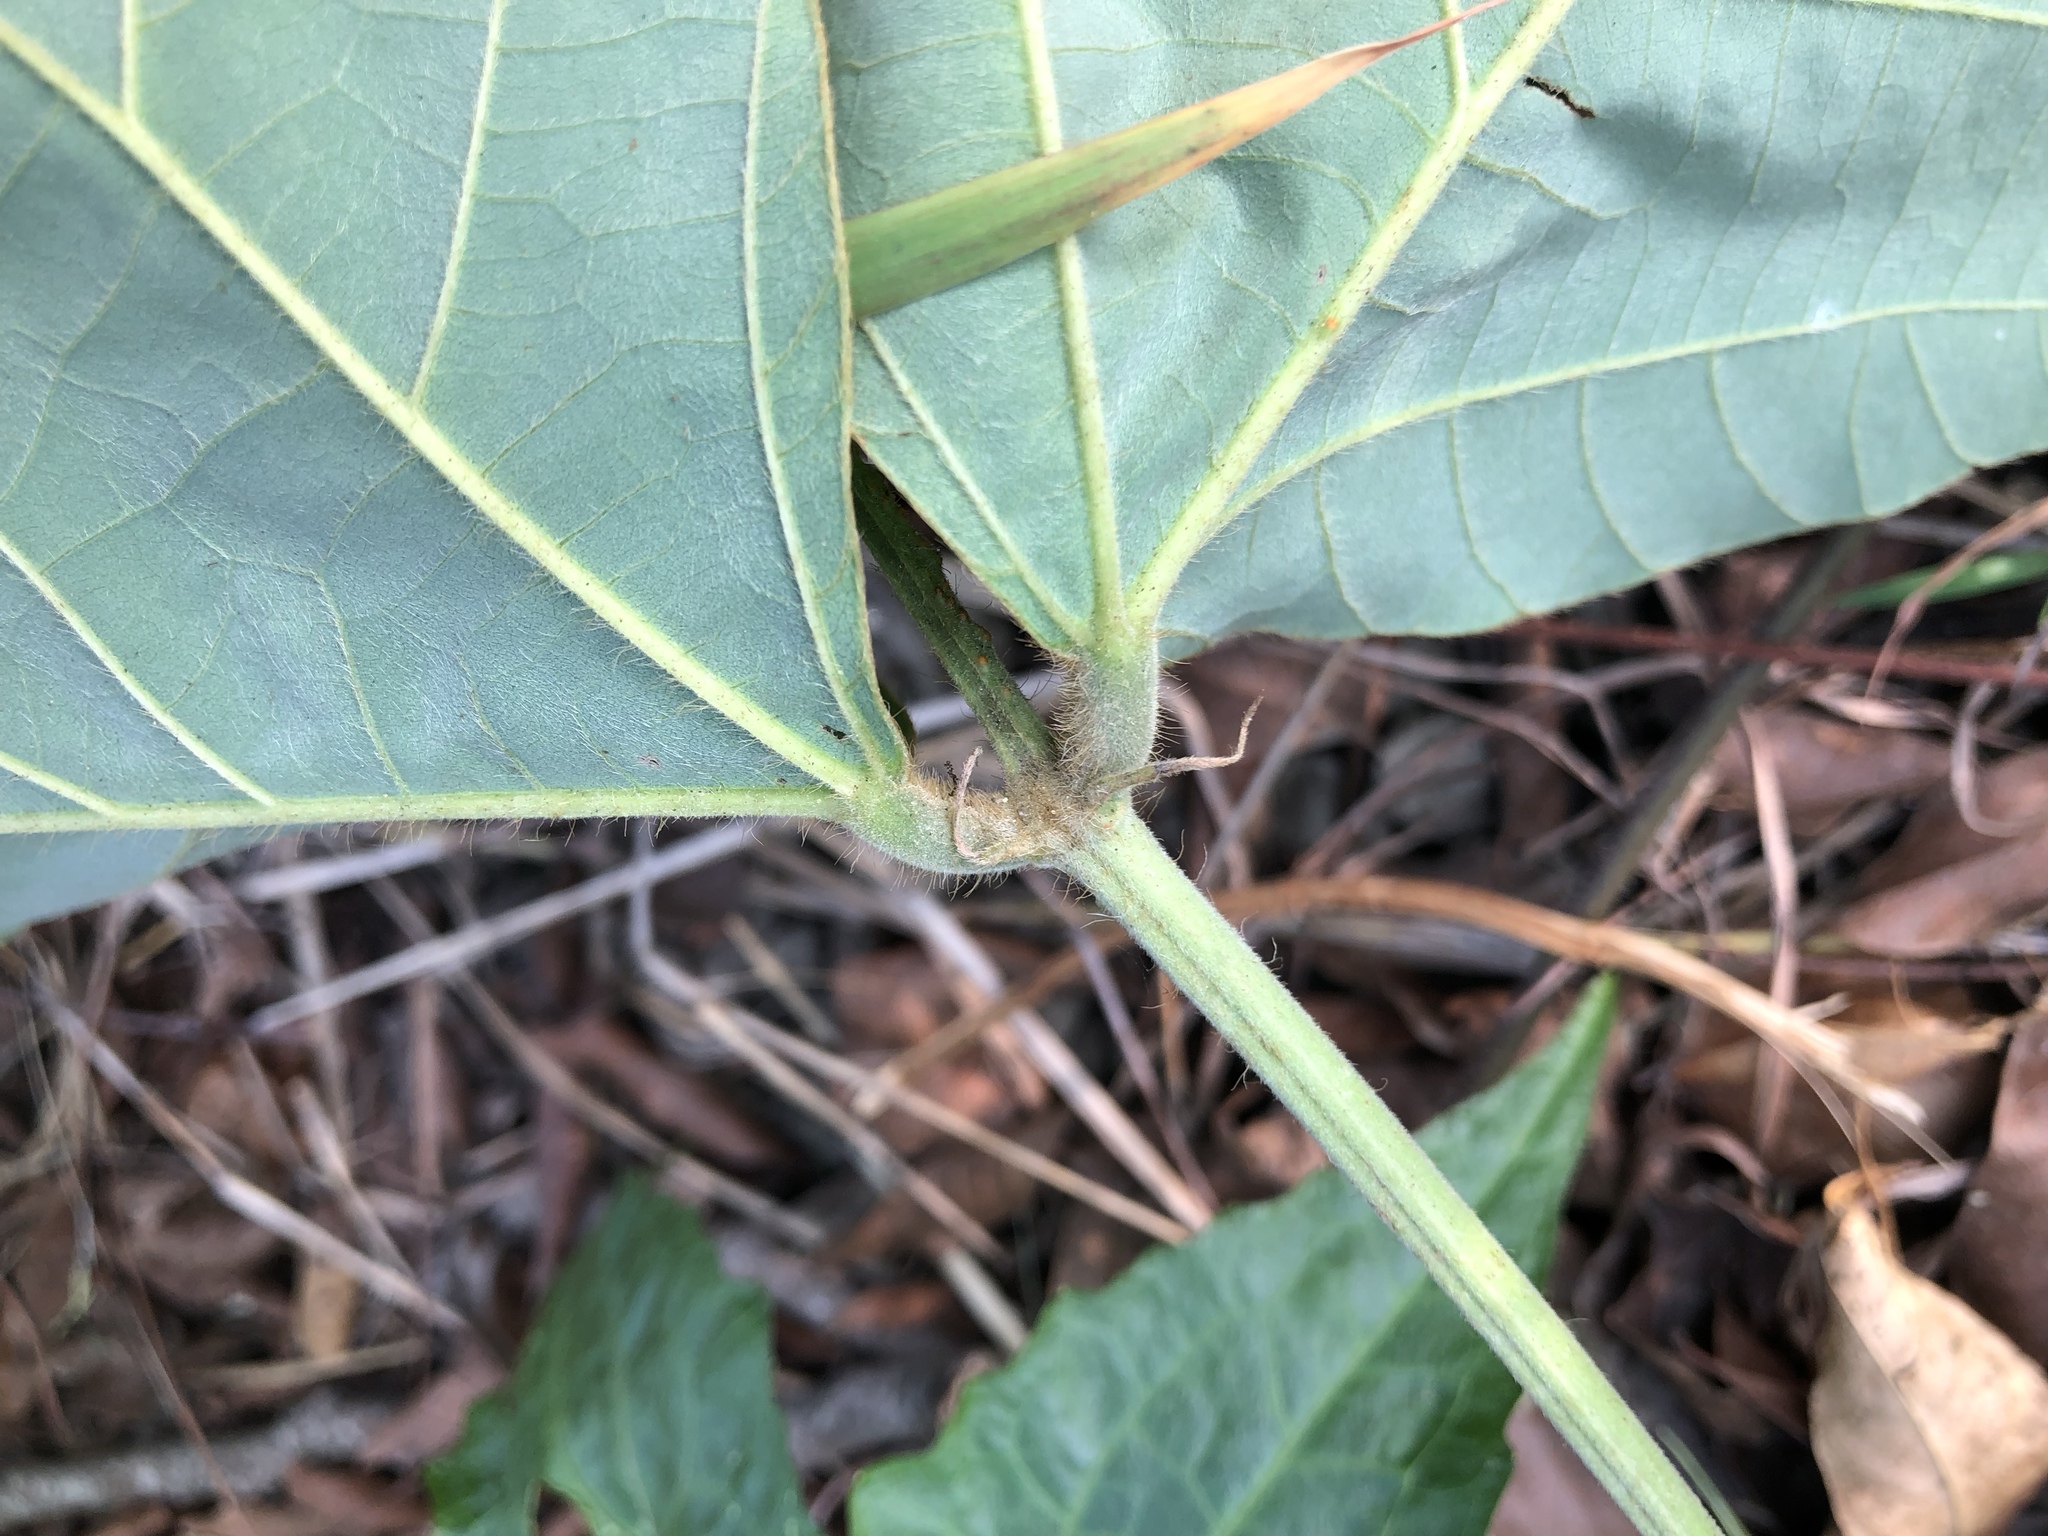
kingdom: Plantae
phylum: Tracheophyta
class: Magnoliopsida
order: Fabales
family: Fabaceae
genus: Neustanthus
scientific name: Neustanthus phaseoloides
